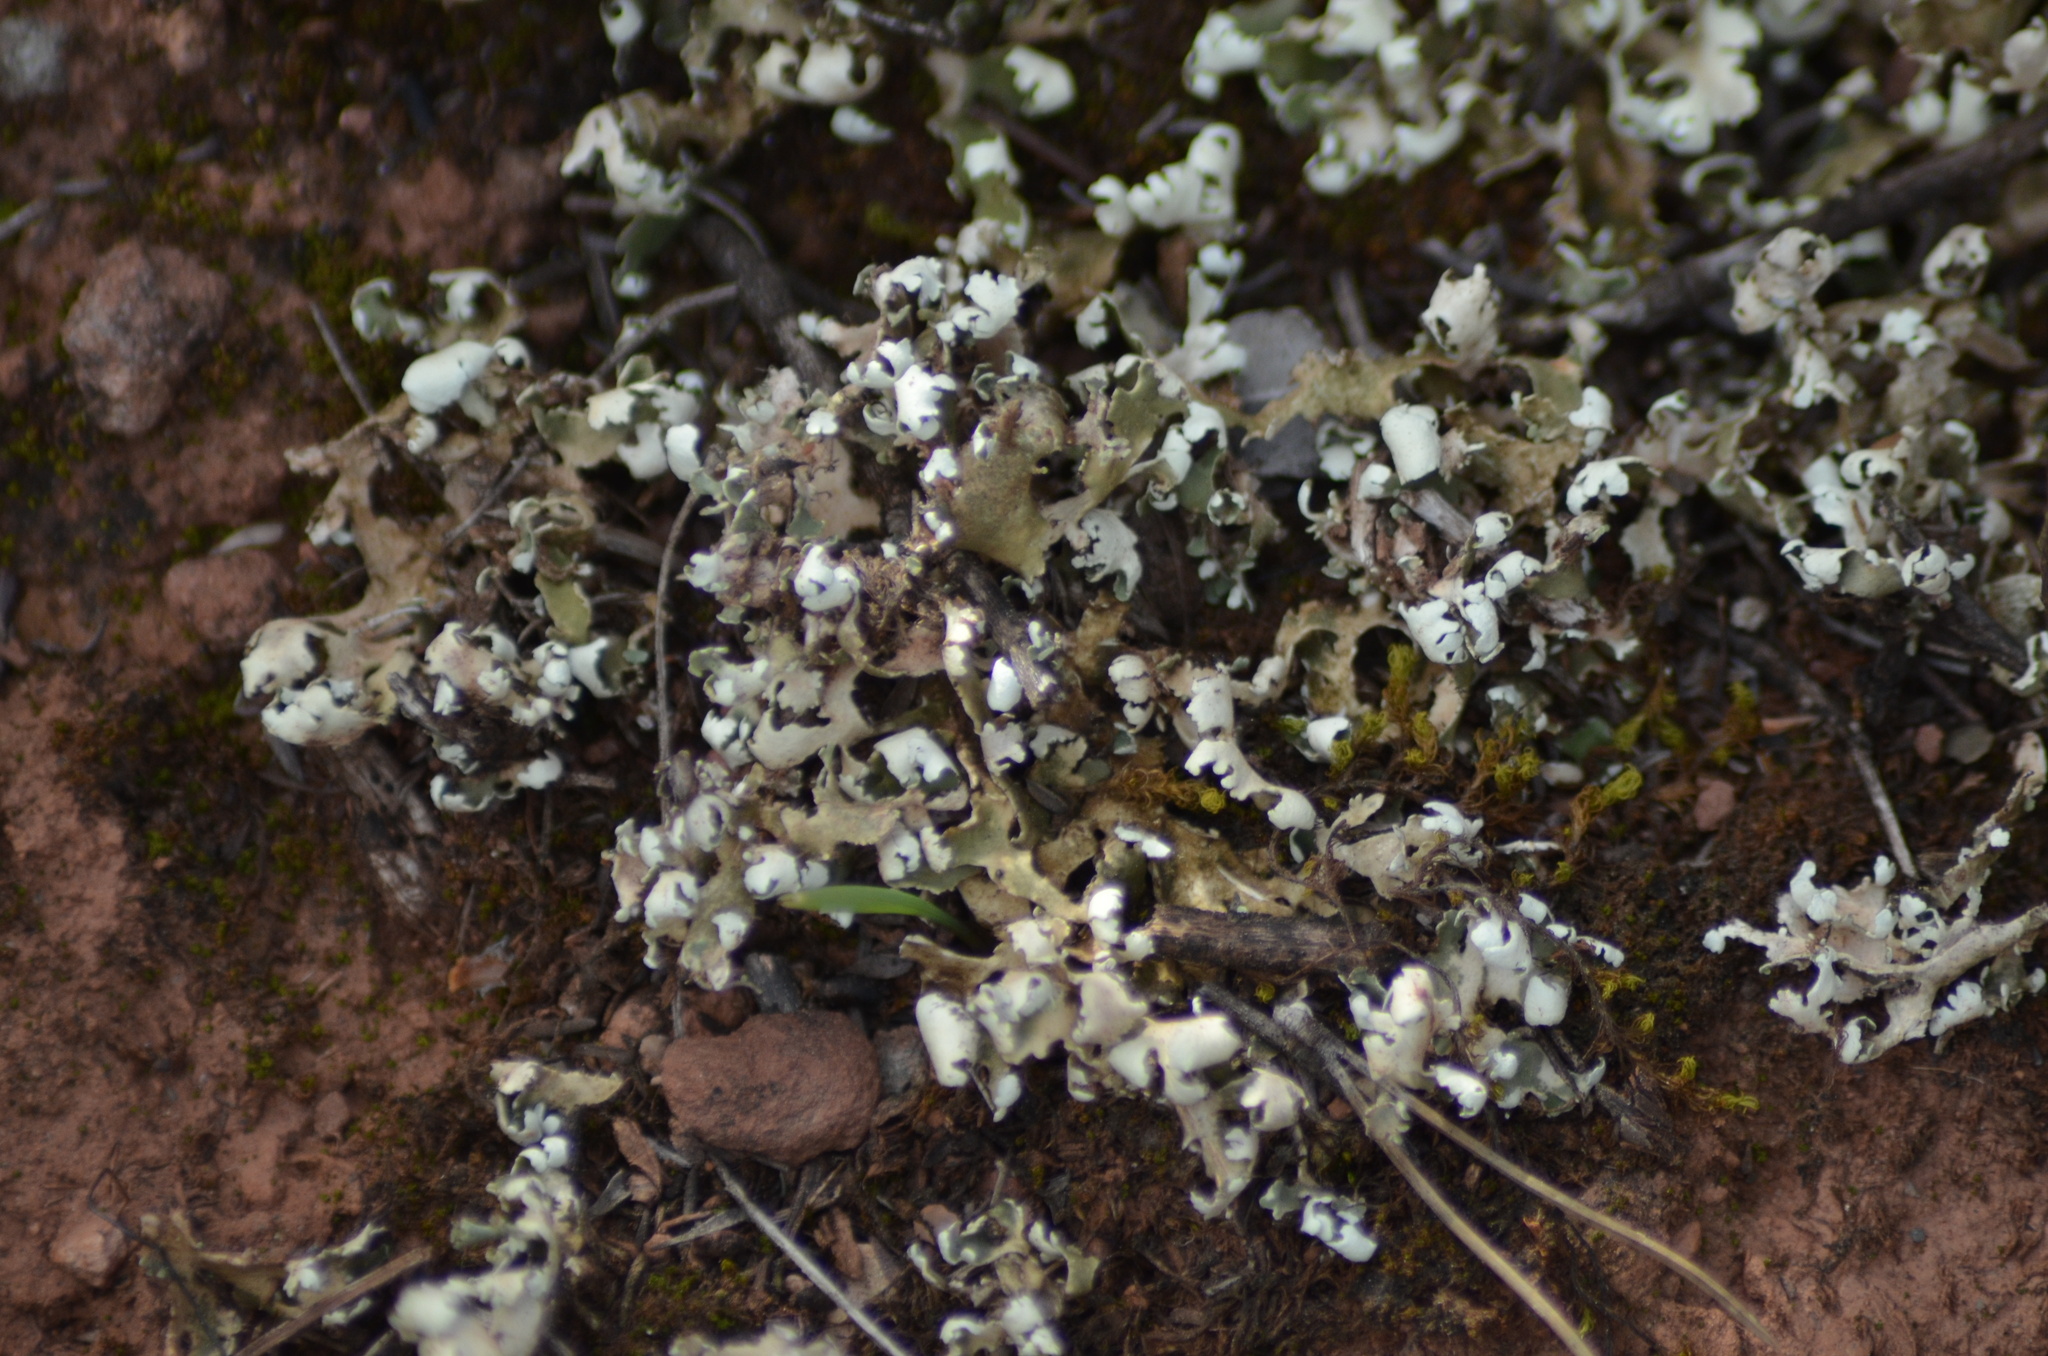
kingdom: Fungi
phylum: Ascomycota
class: Lecanoromycetes
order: Lecanorales
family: Cladoniaceae
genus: Cladonia
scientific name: Cladonia foliacea
